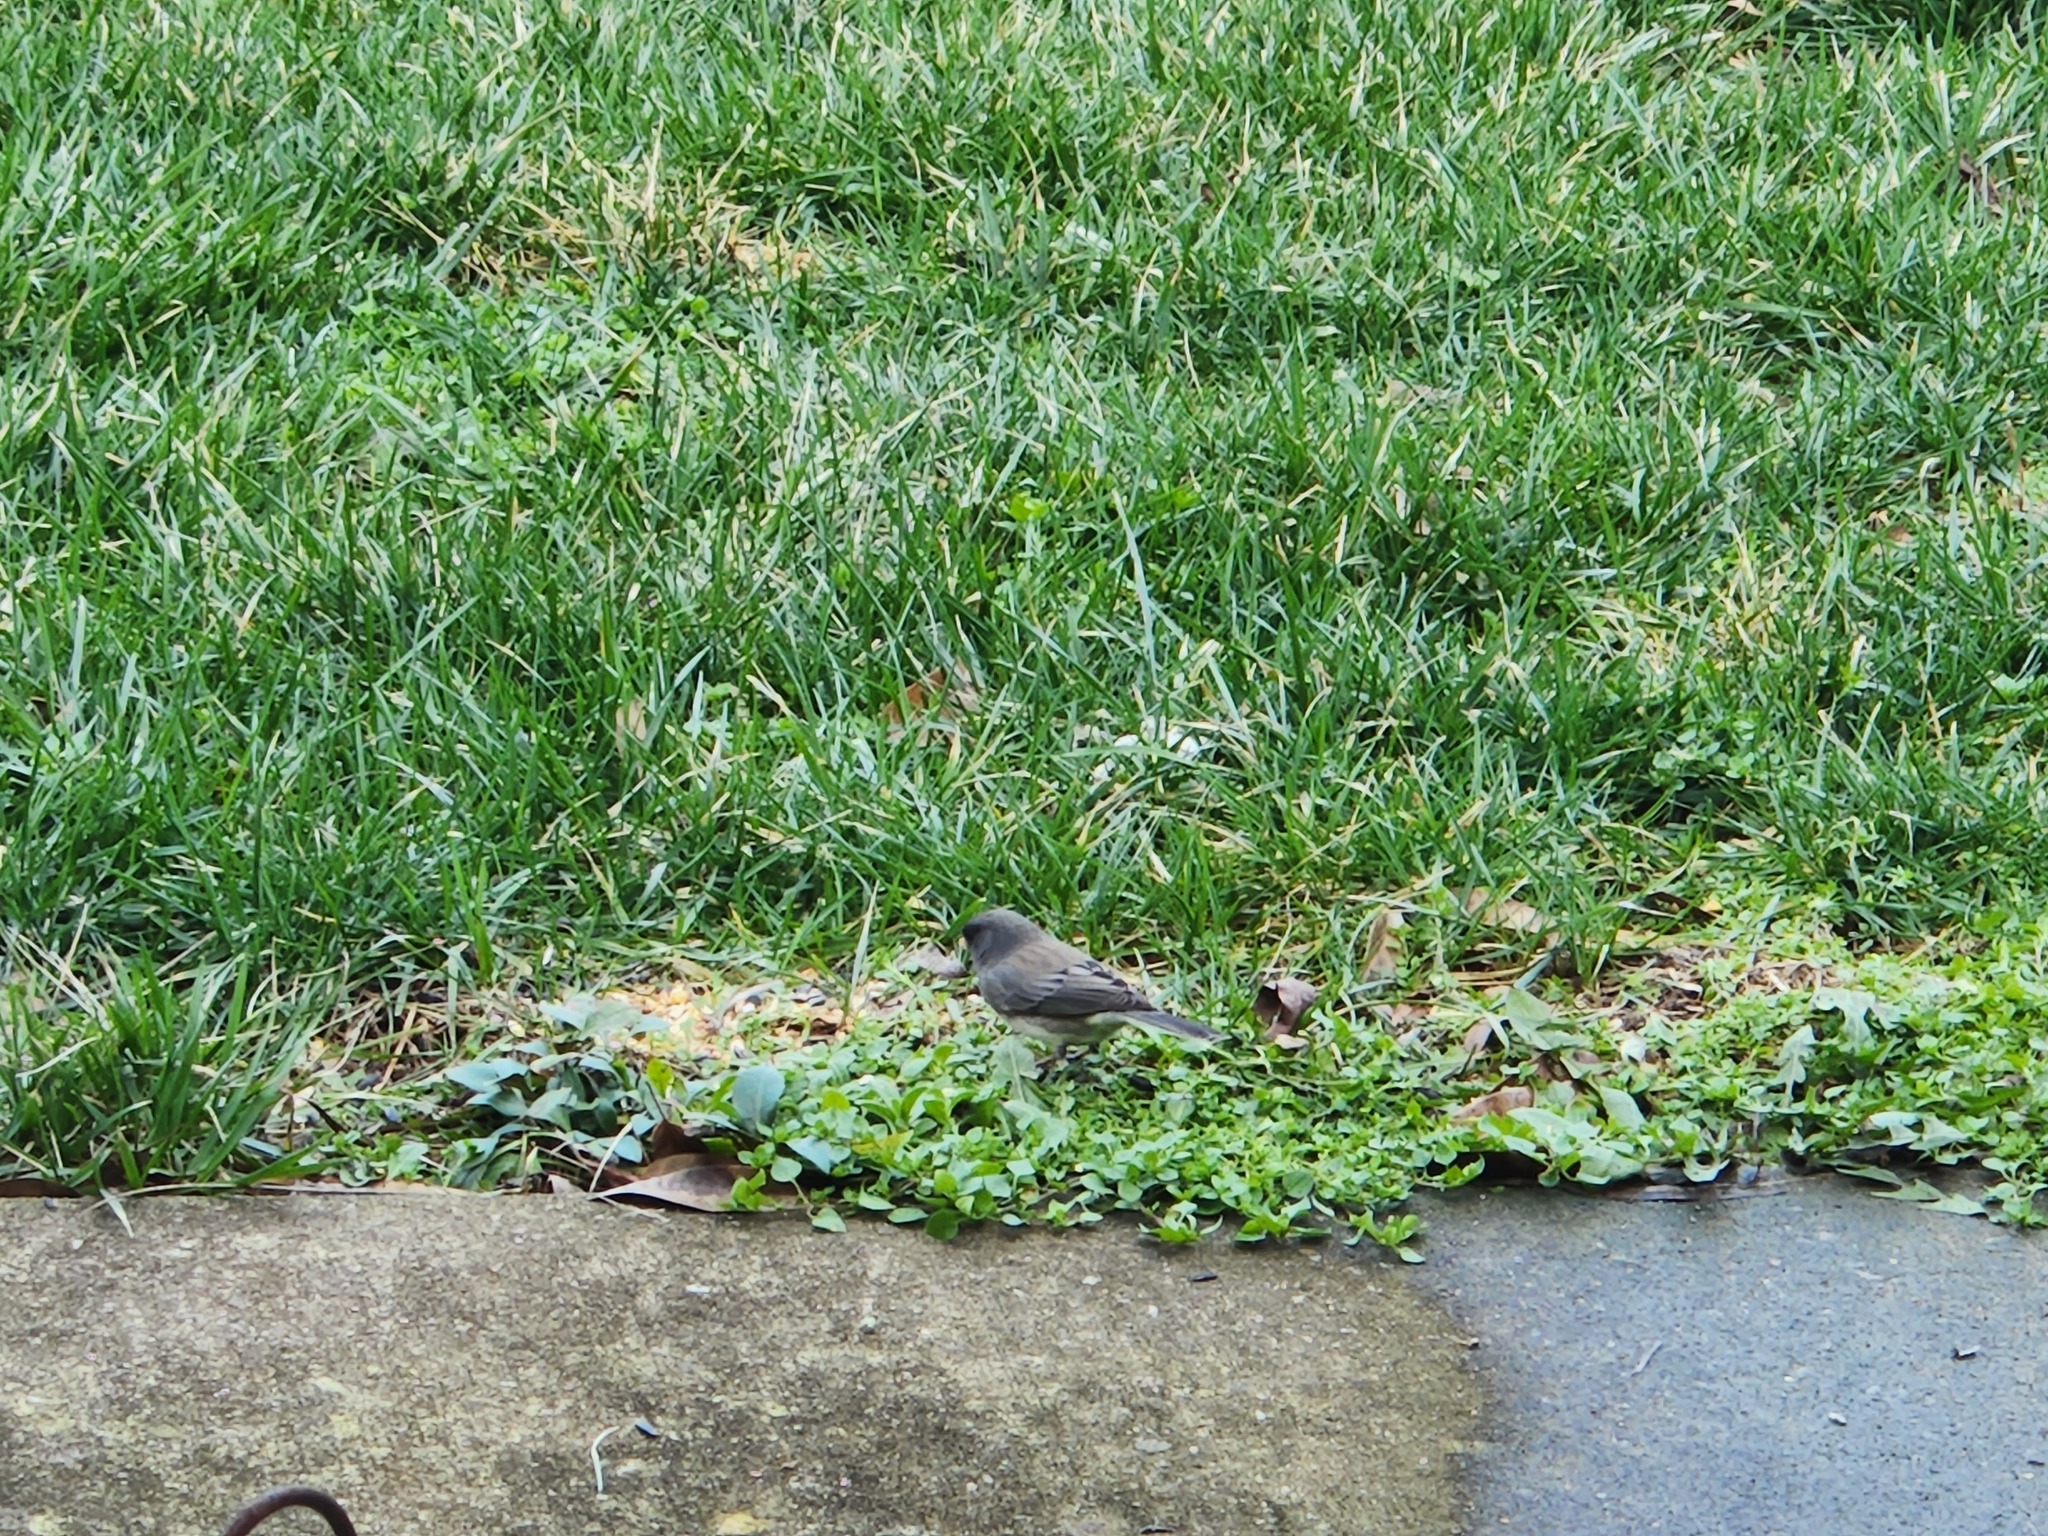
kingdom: Animalia
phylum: Chordata
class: Aves
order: Passeriformes
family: Passerellidae
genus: Junco
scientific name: Junco hyemalis
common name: Dark-eyed junco
